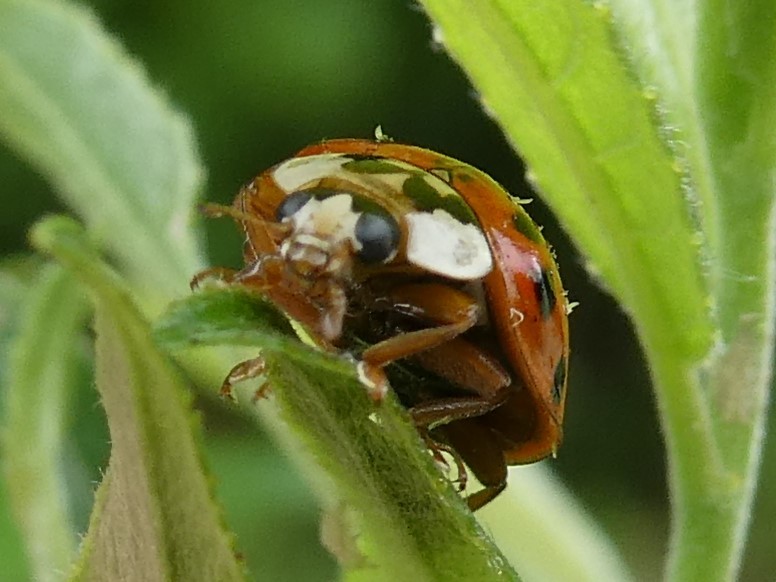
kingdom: Animalia
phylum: Arthropoda
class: Insecta
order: Coleoptera
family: Coccinellidae
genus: Harmonia
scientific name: Harmonia axyridis
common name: Harlequin ladybird
